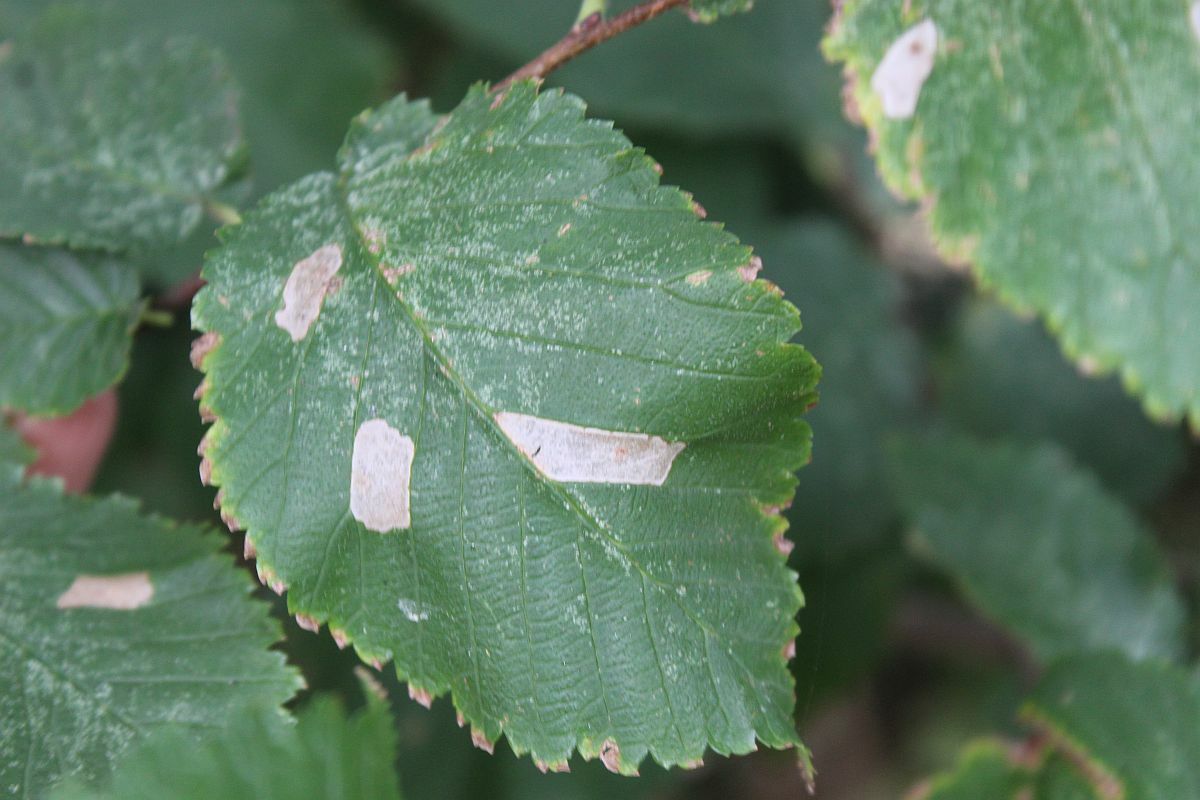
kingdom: Animalia
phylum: Arthropoda
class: Insecta
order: Lepidoptera
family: Gracillariidae
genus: Phyllonorycter
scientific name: Phyllonorycter coryli
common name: Nut-leaf blister moth
